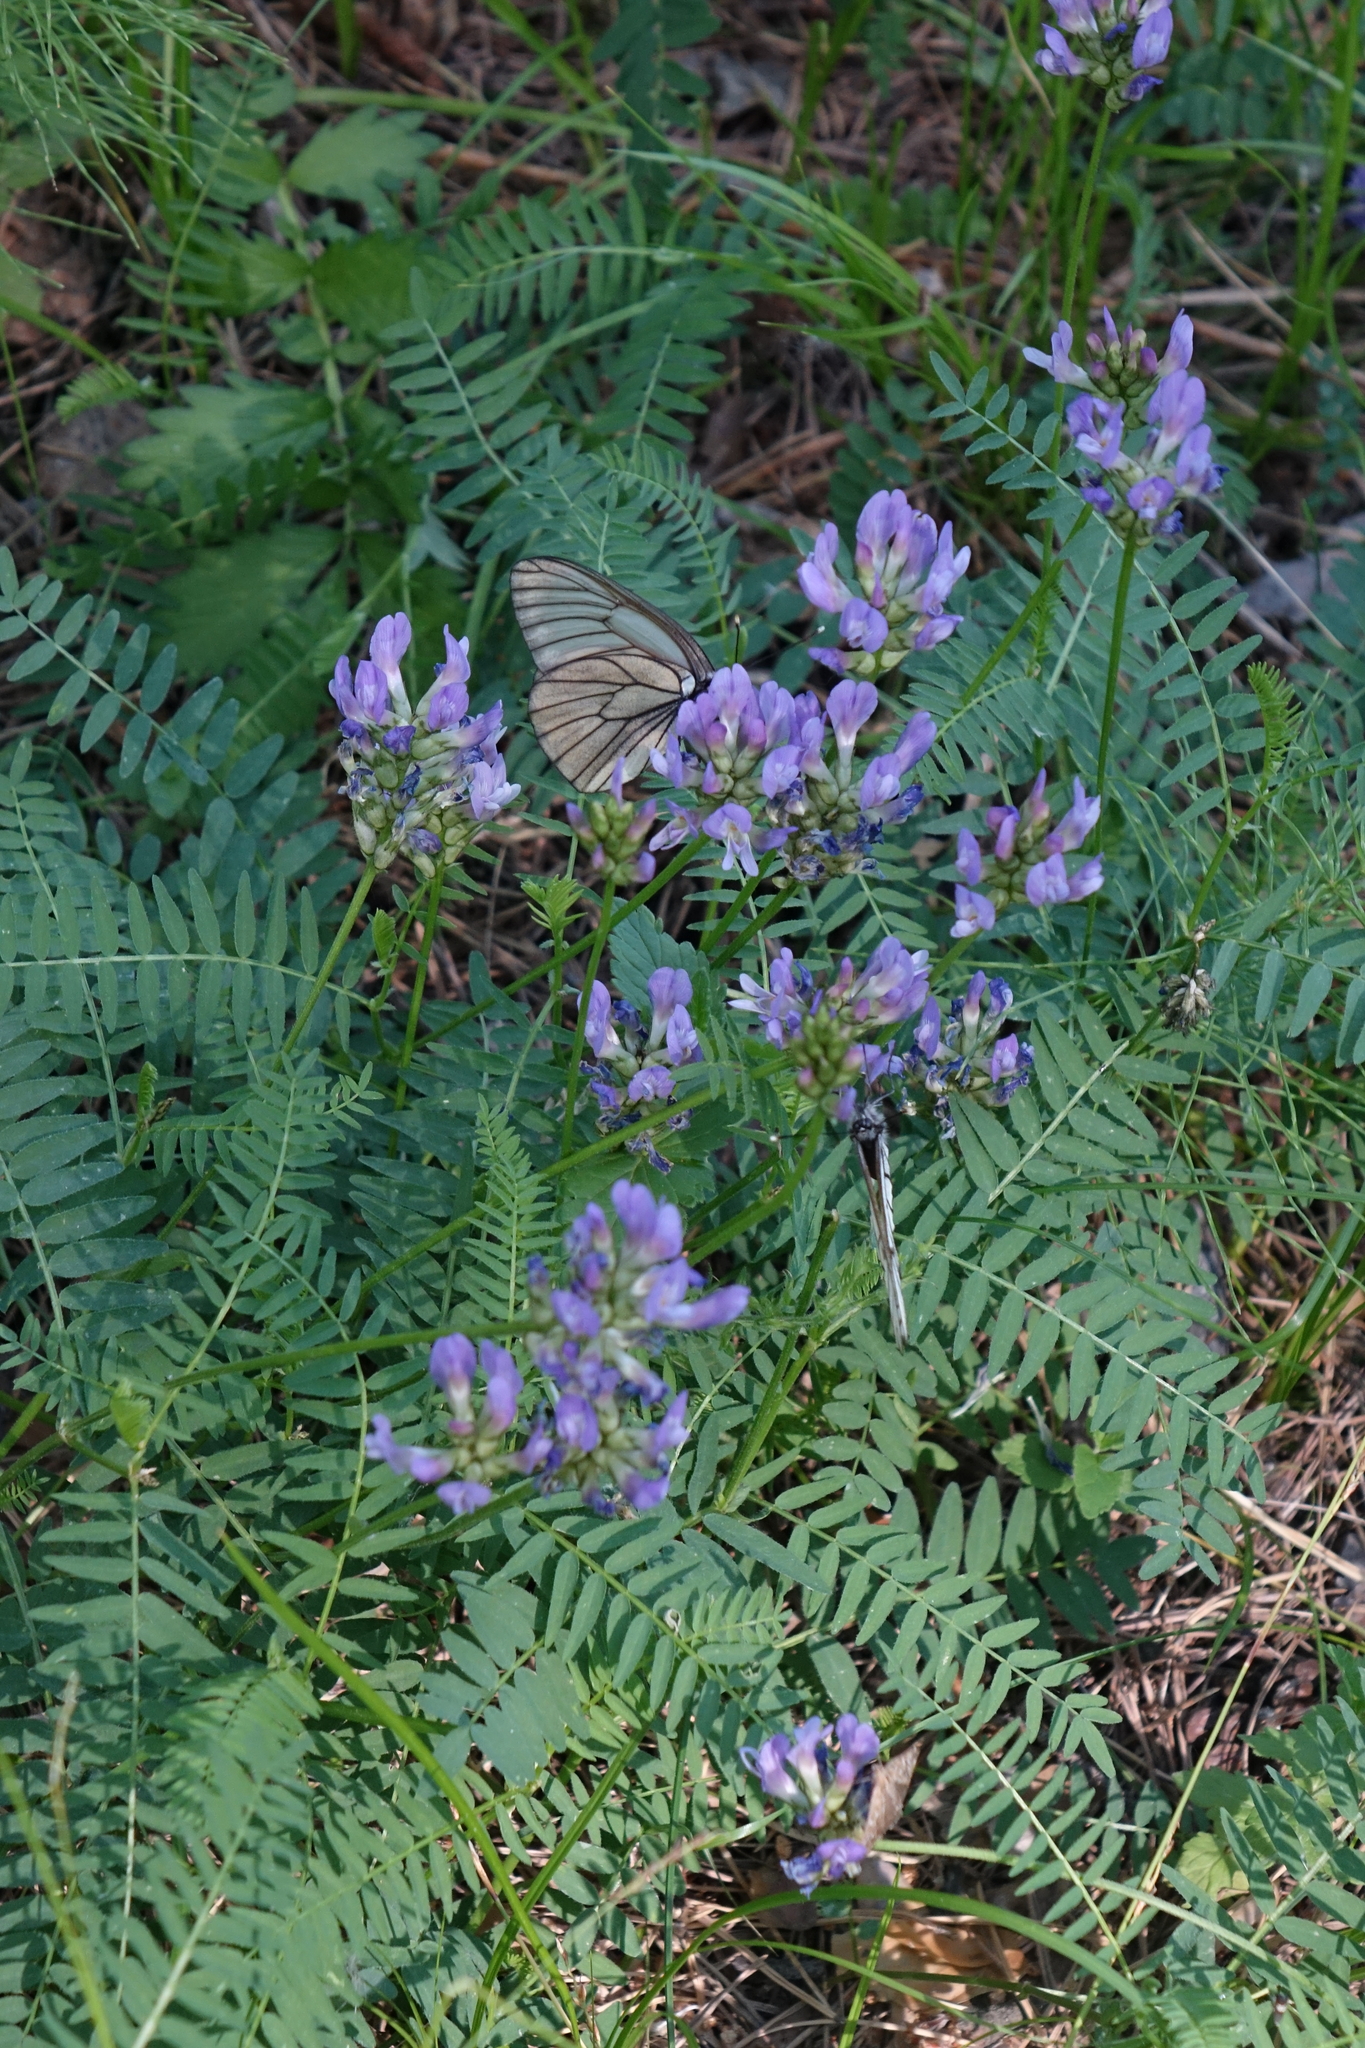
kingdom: Plantae
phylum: Tracheophyta
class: Magnoliopsida
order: Fabales
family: Fabaceae
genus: Astragalus
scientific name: Astragalus danicus
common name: Purple milk-vetch
